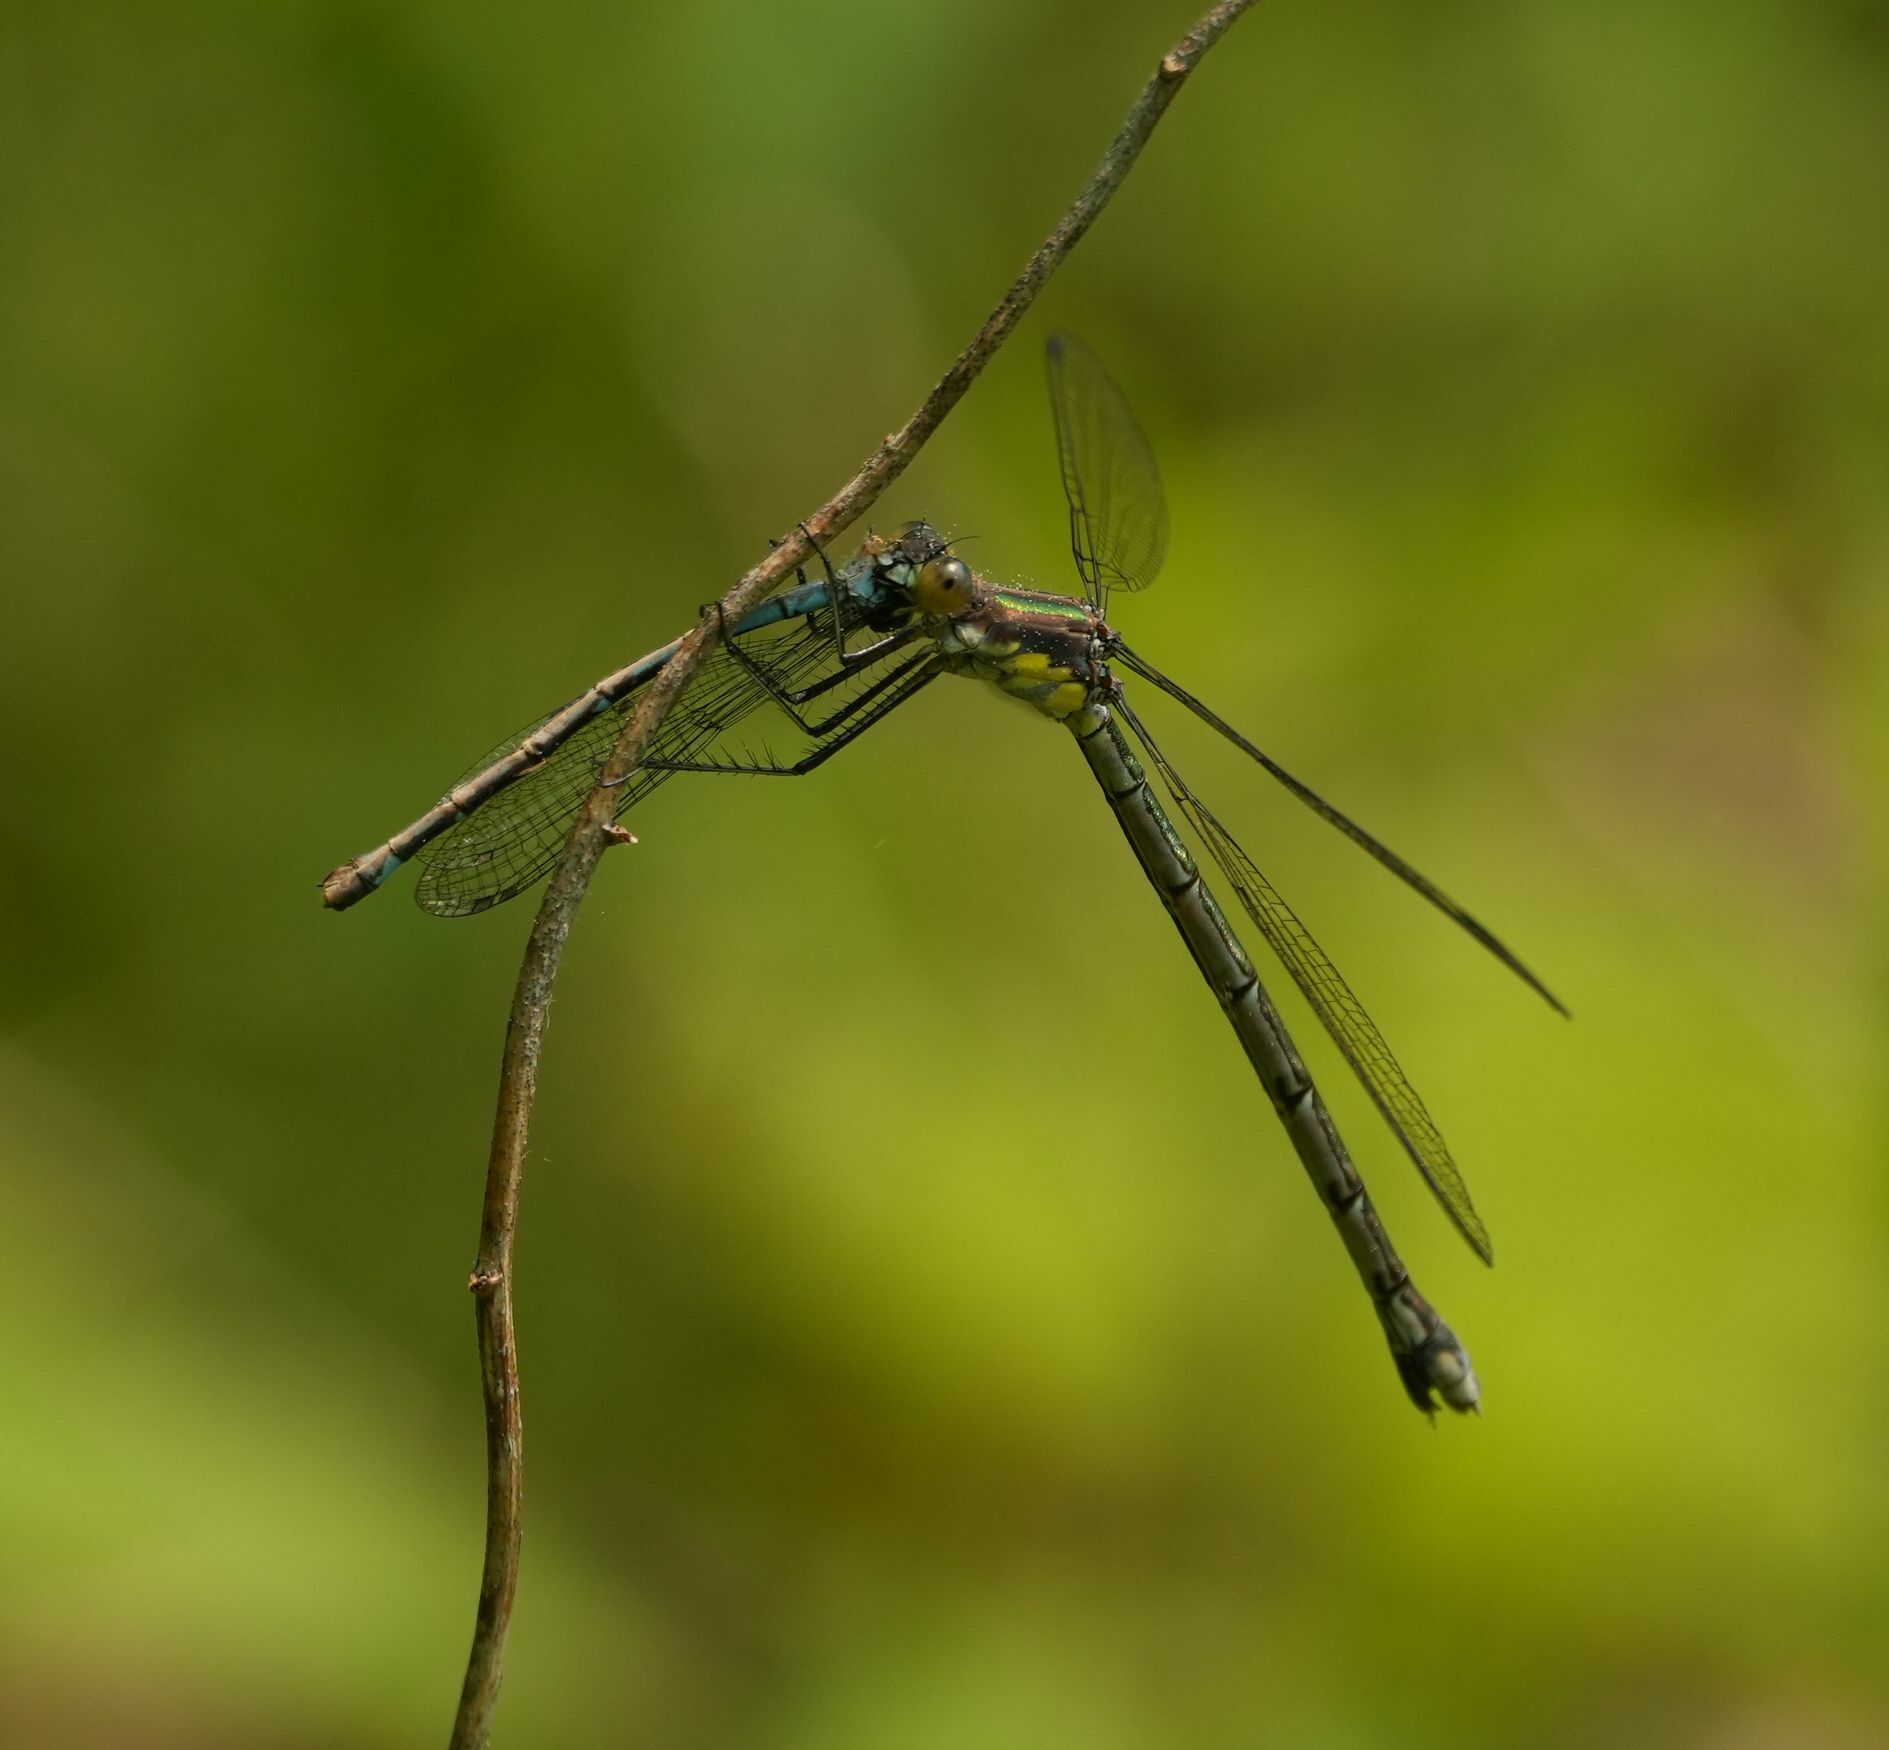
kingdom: Animalia
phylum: Arthropoda
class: Insecta
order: Odonata
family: Lestidae
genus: Lestes
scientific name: Lestes eurinus
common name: Amber-winged spreadwing
